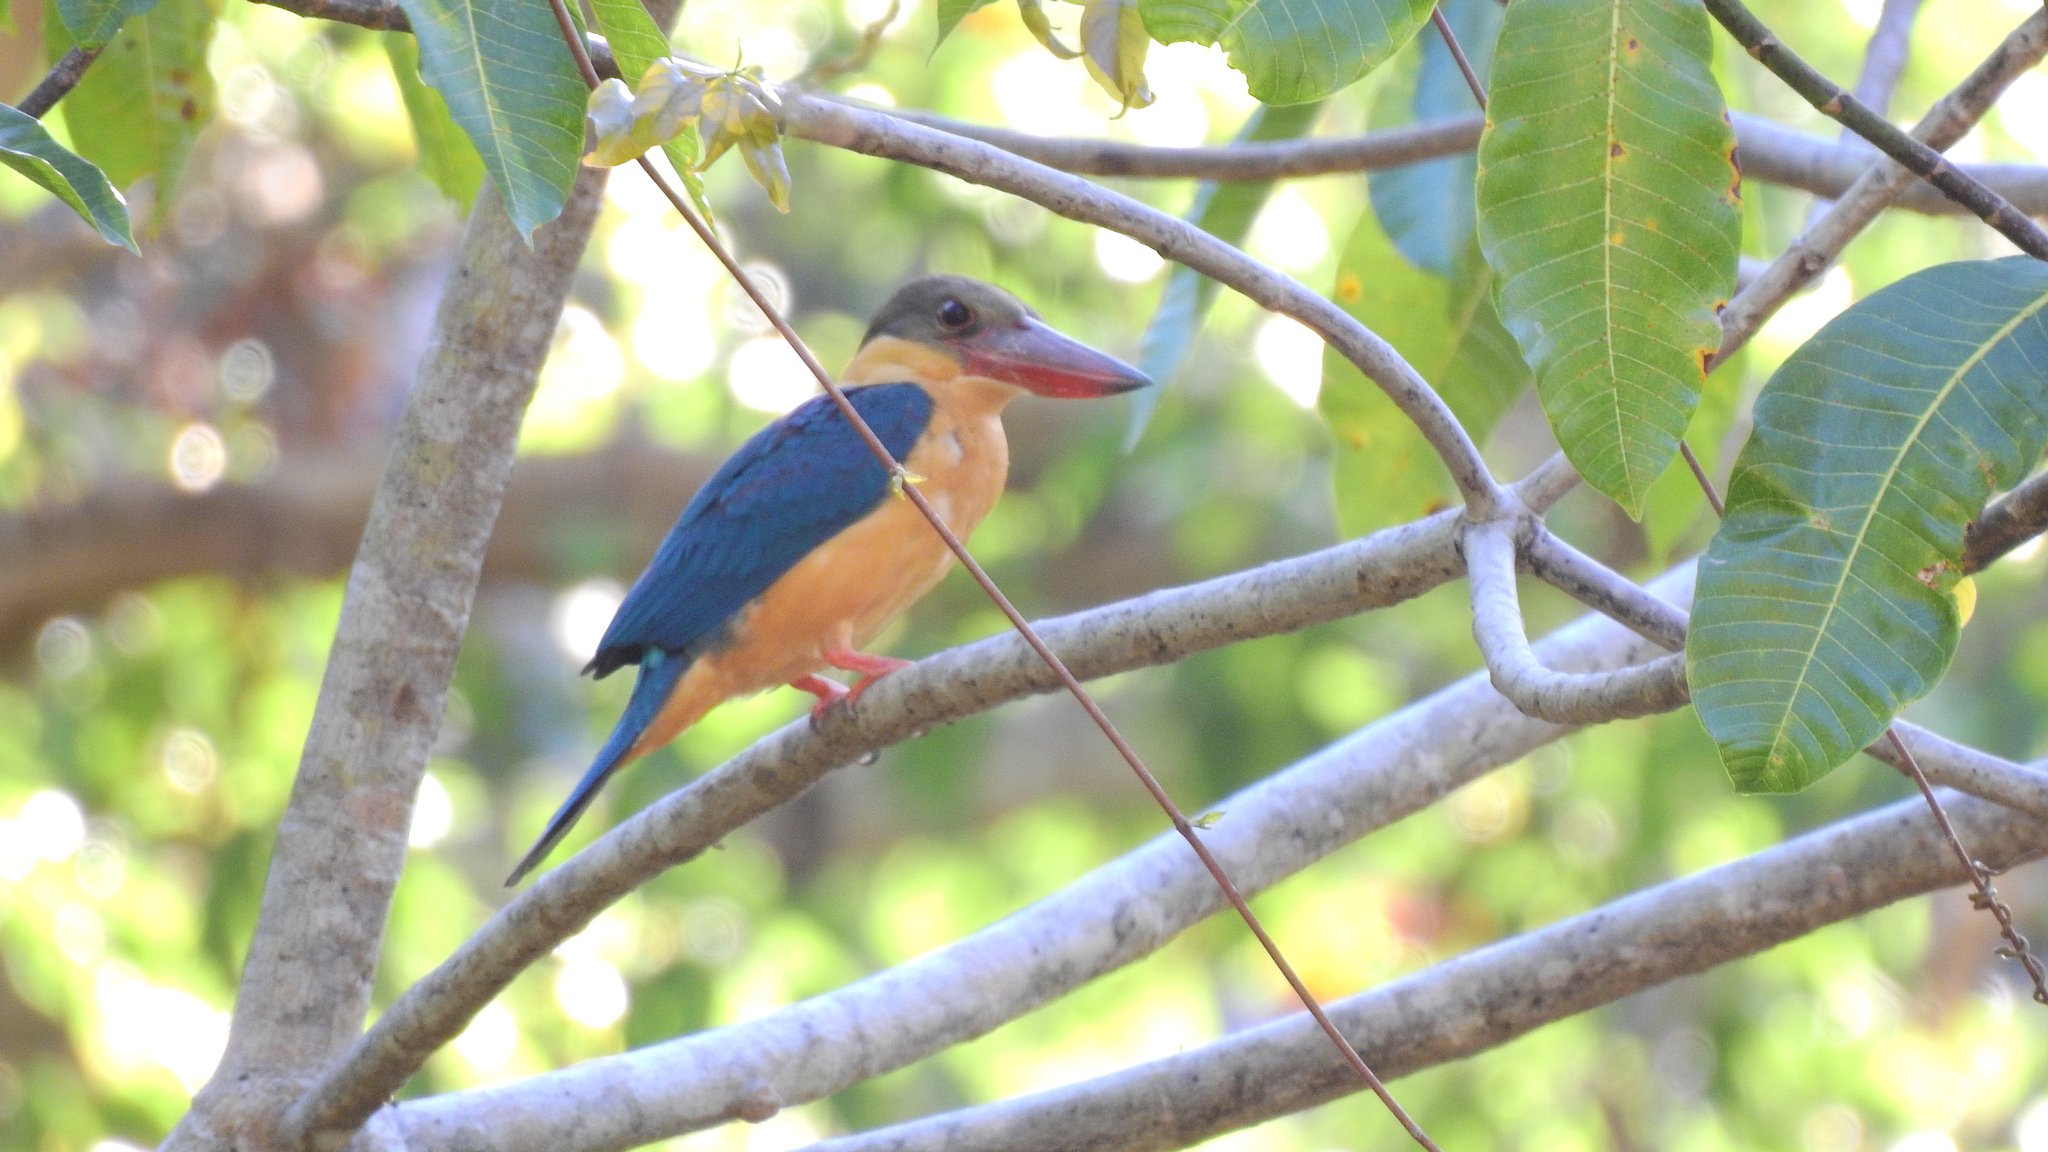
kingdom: Animalia
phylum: Chordata
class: Aves
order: Coraciiformes
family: Alcedinidae
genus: Pelargopsis
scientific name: Pelargopsis capensis
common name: Stork-billed kingfisher
